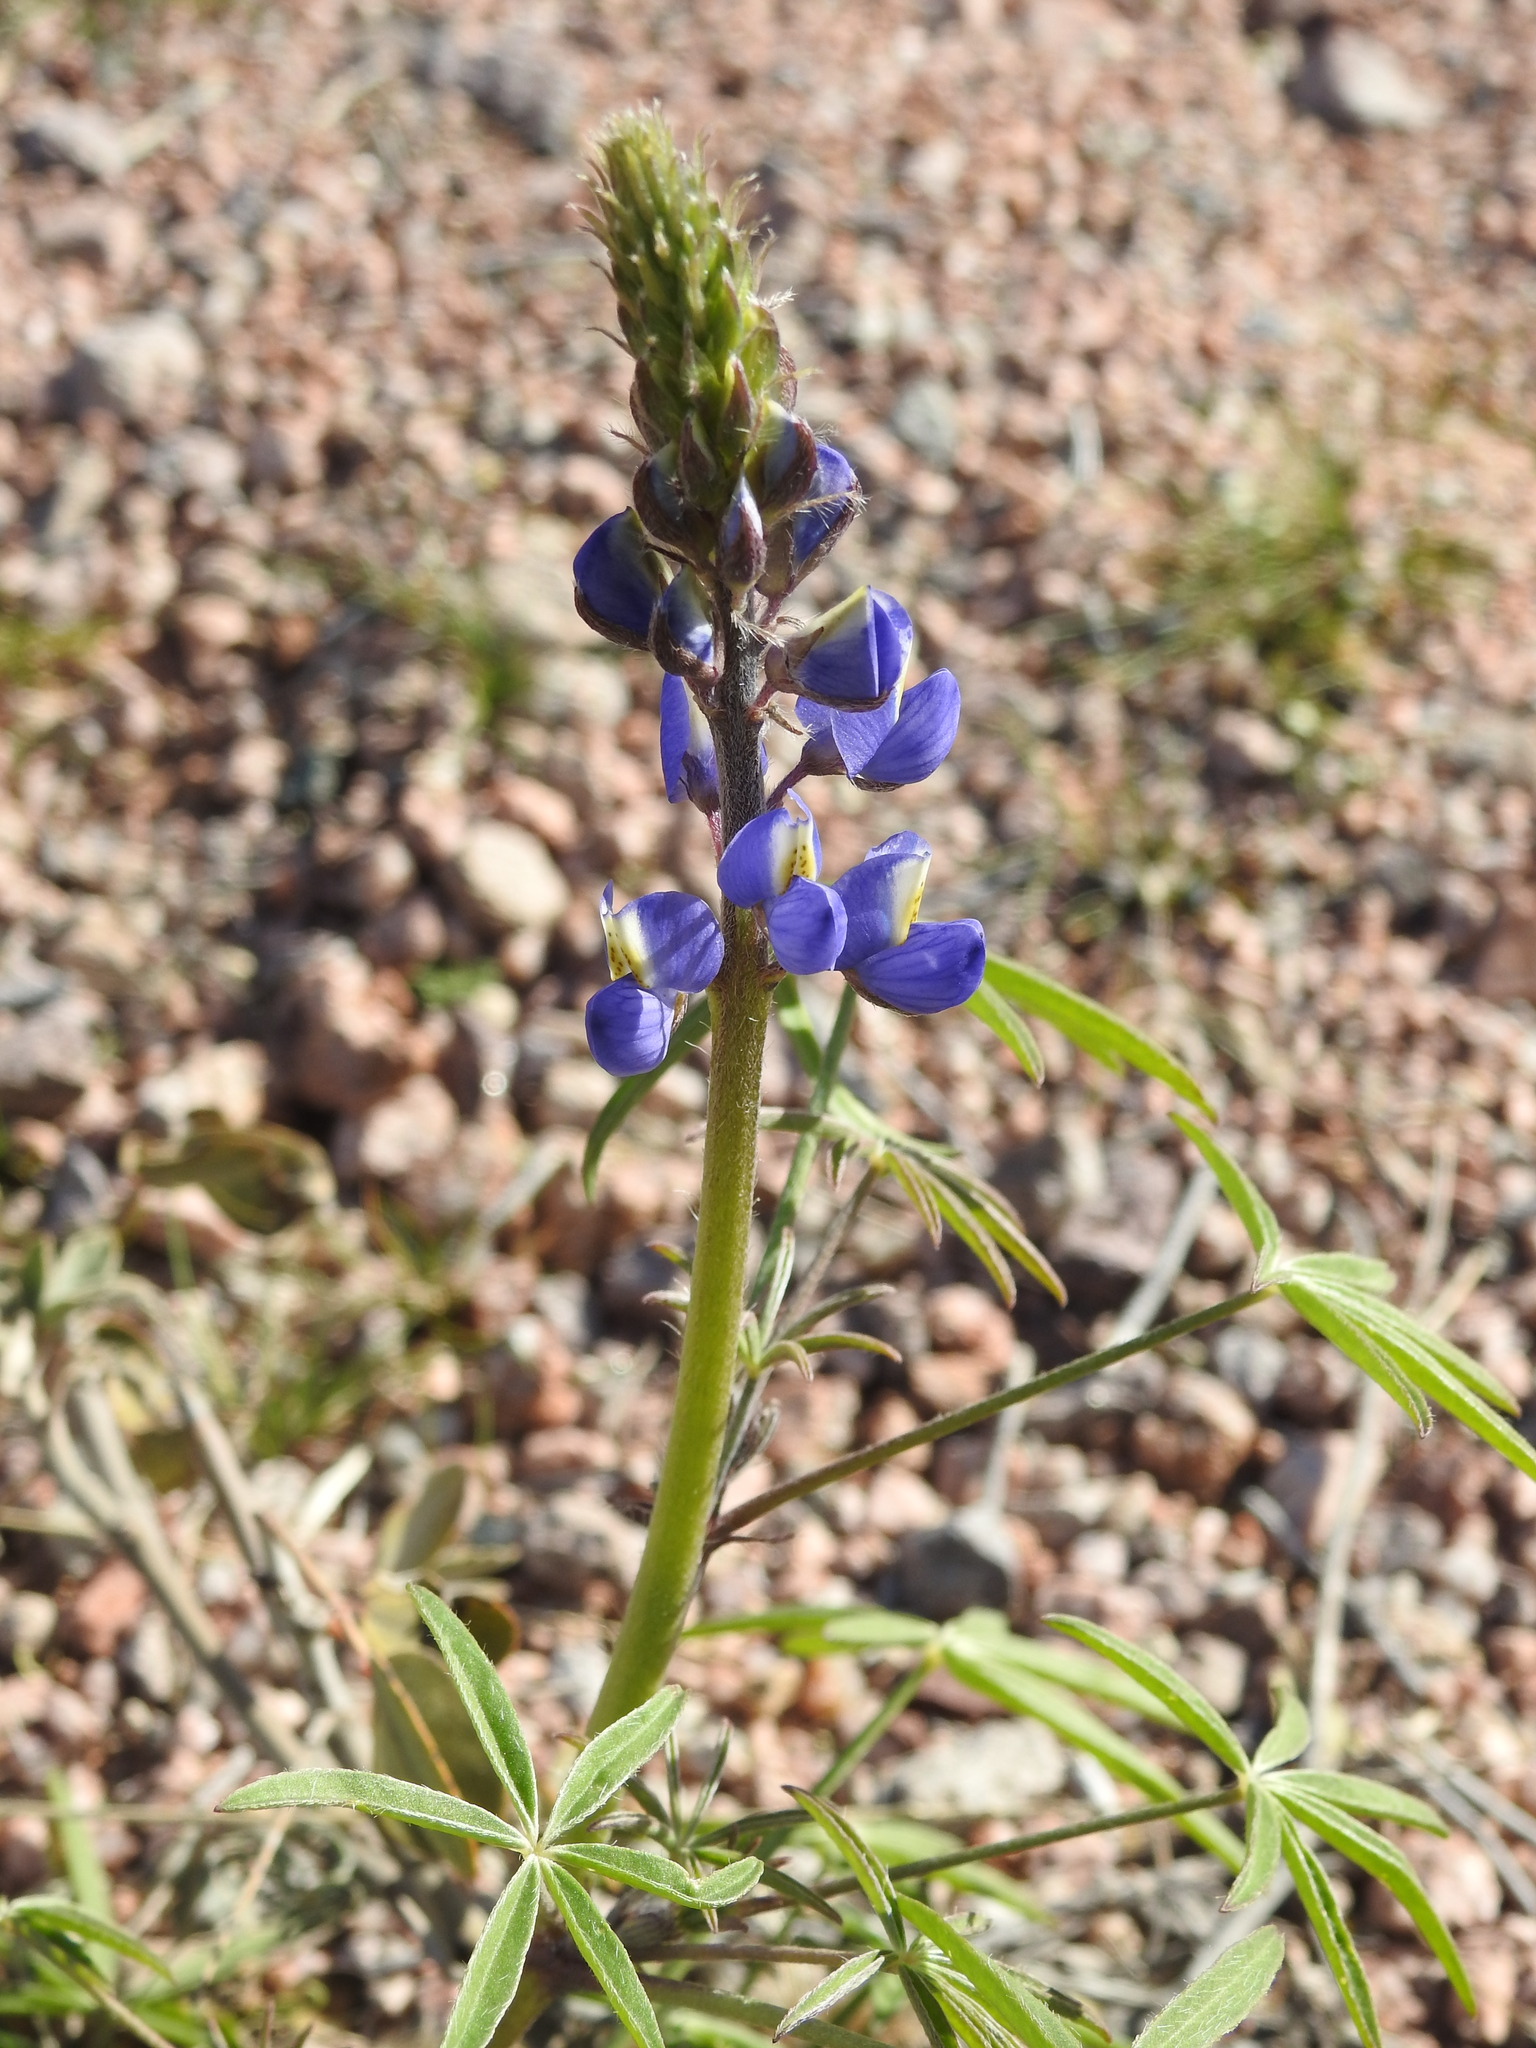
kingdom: Plantae
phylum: Tracheophyta
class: Magnoliopsida
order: Fabales
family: Fabaceae
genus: Lupinus
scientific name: Lupinus sparsiflorus
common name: Coulter's lupine
